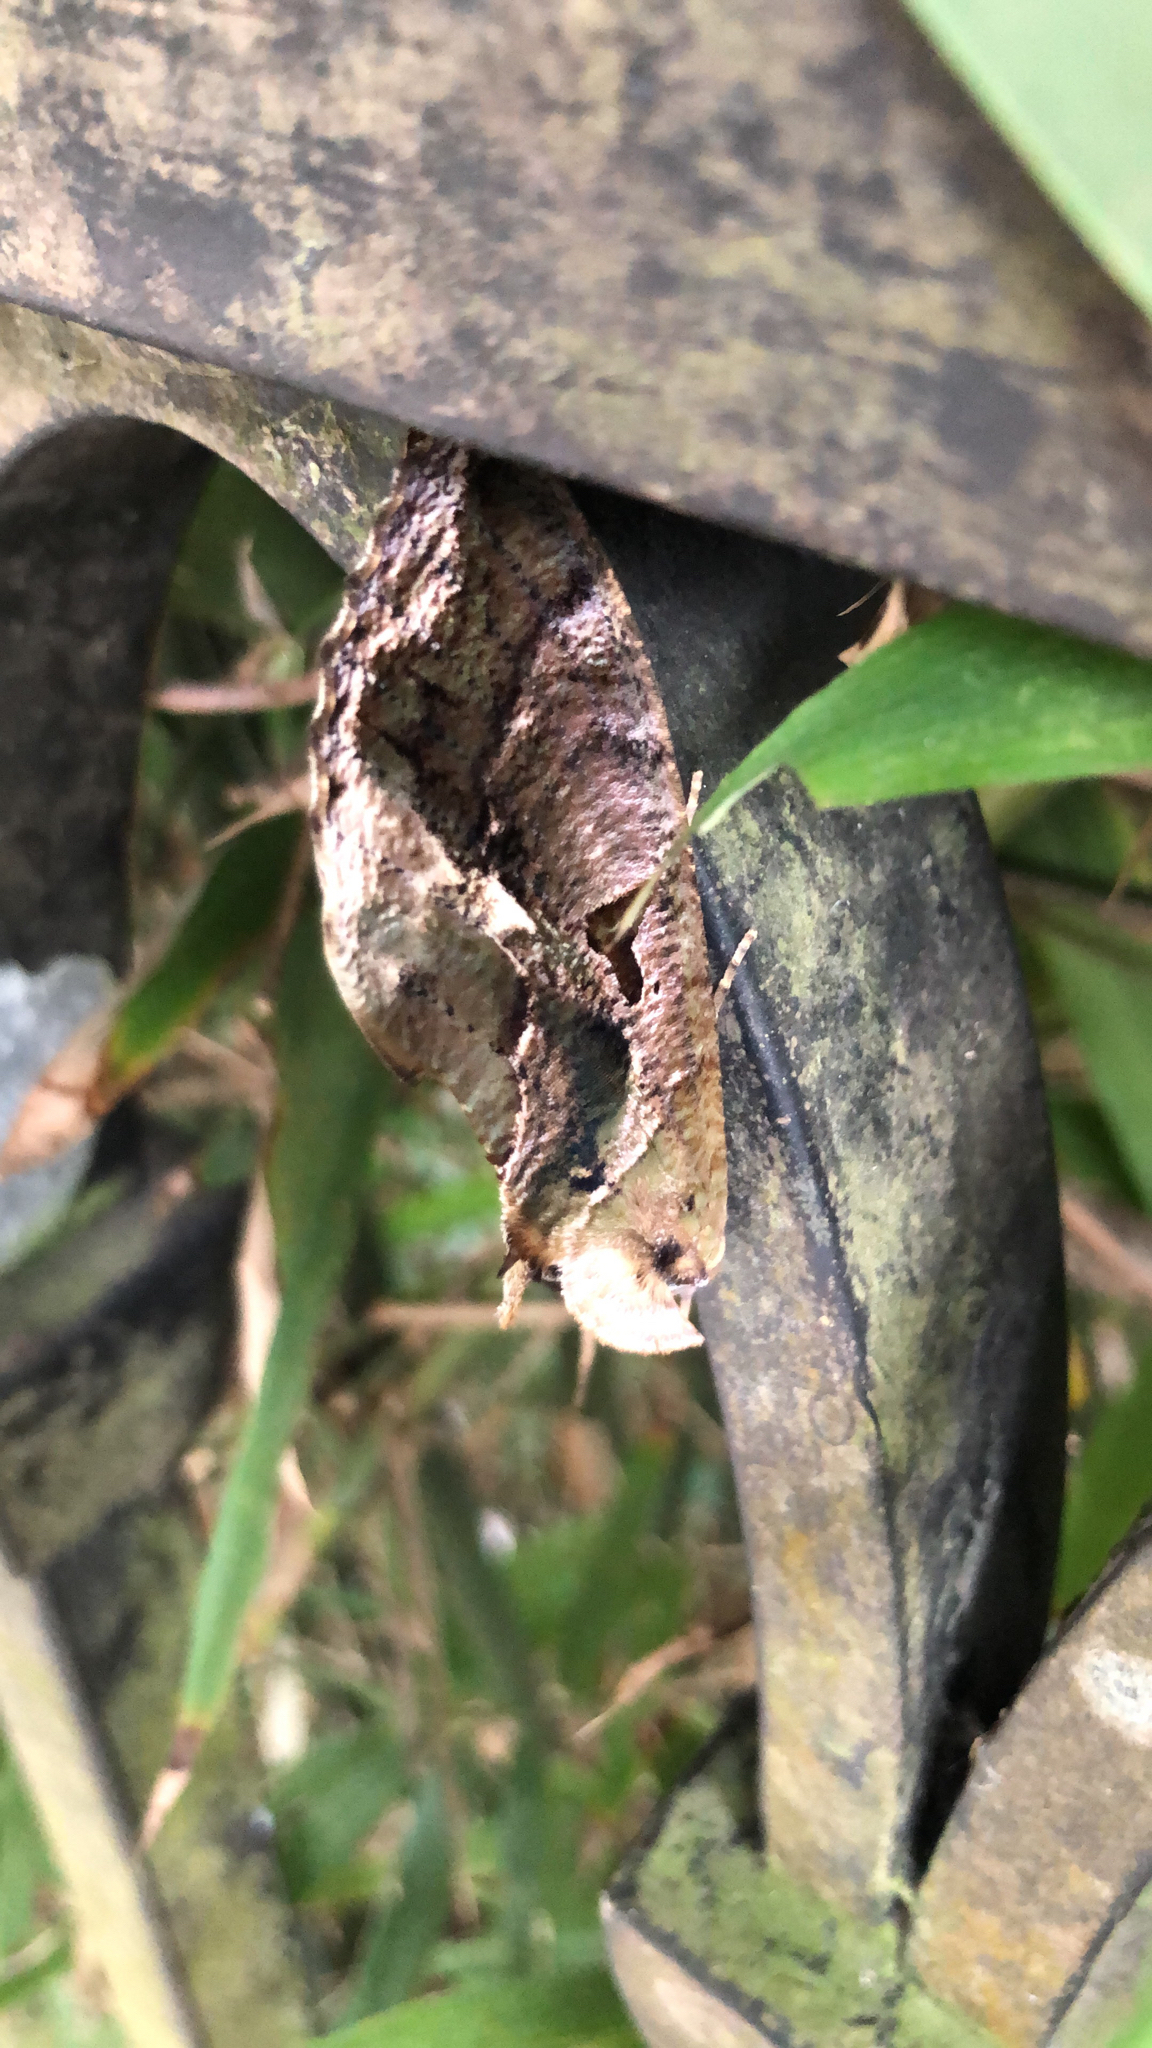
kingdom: Animalia
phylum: Arthropoda
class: Insecta
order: Lepidoptera
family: Erebidae
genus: Eudocima
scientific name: Eudocima phalonia
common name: Wasp
